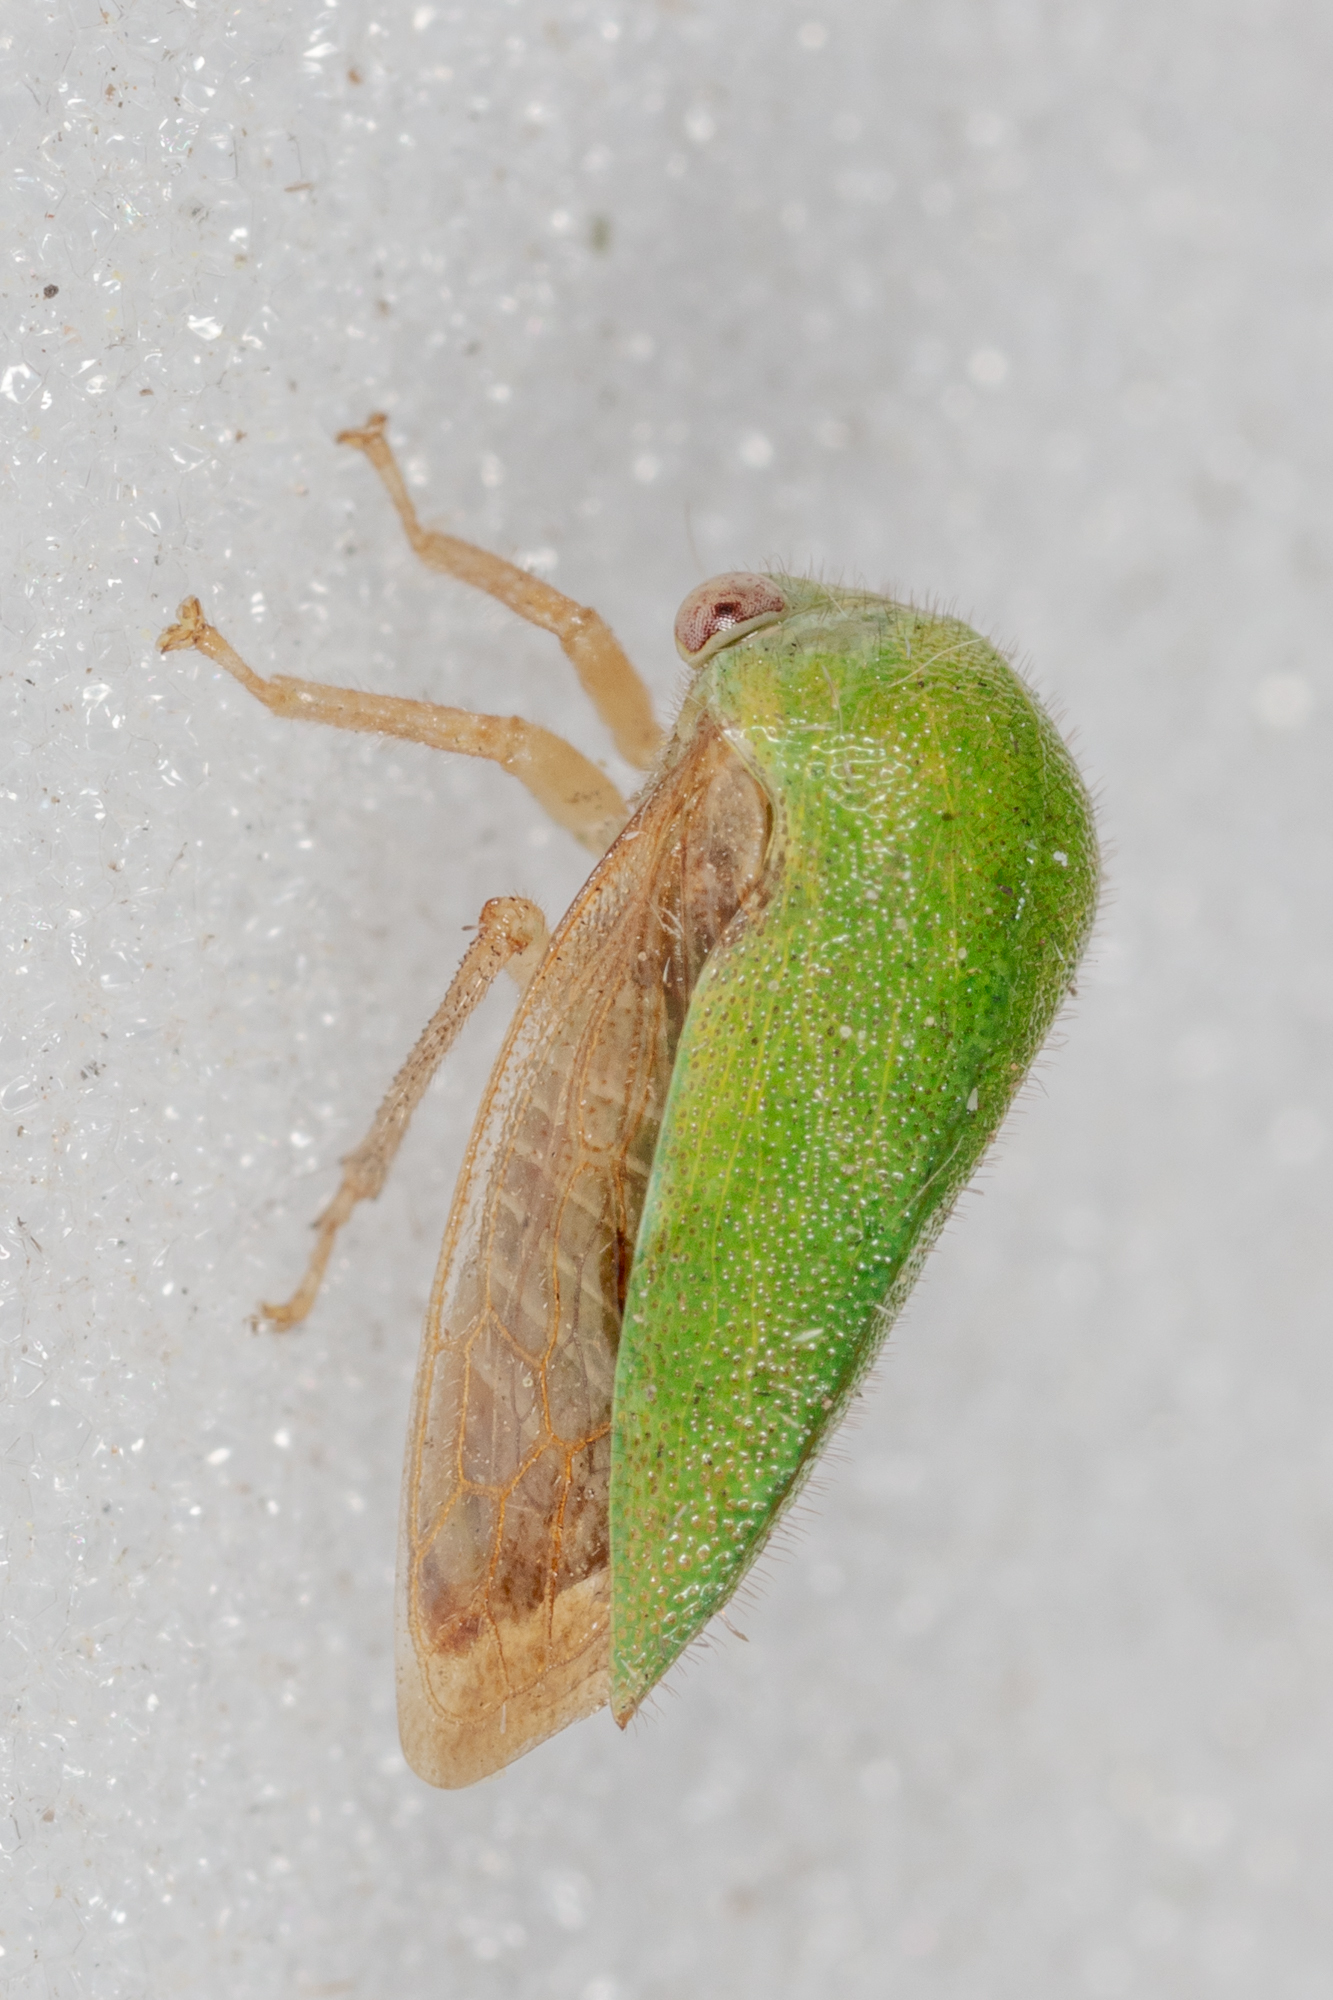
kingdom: Animalia
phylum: Arthropoda
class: Insecta
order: Hemiptera
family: Membracidae
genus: Ophiderma
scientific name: Ophiderma evelyna
